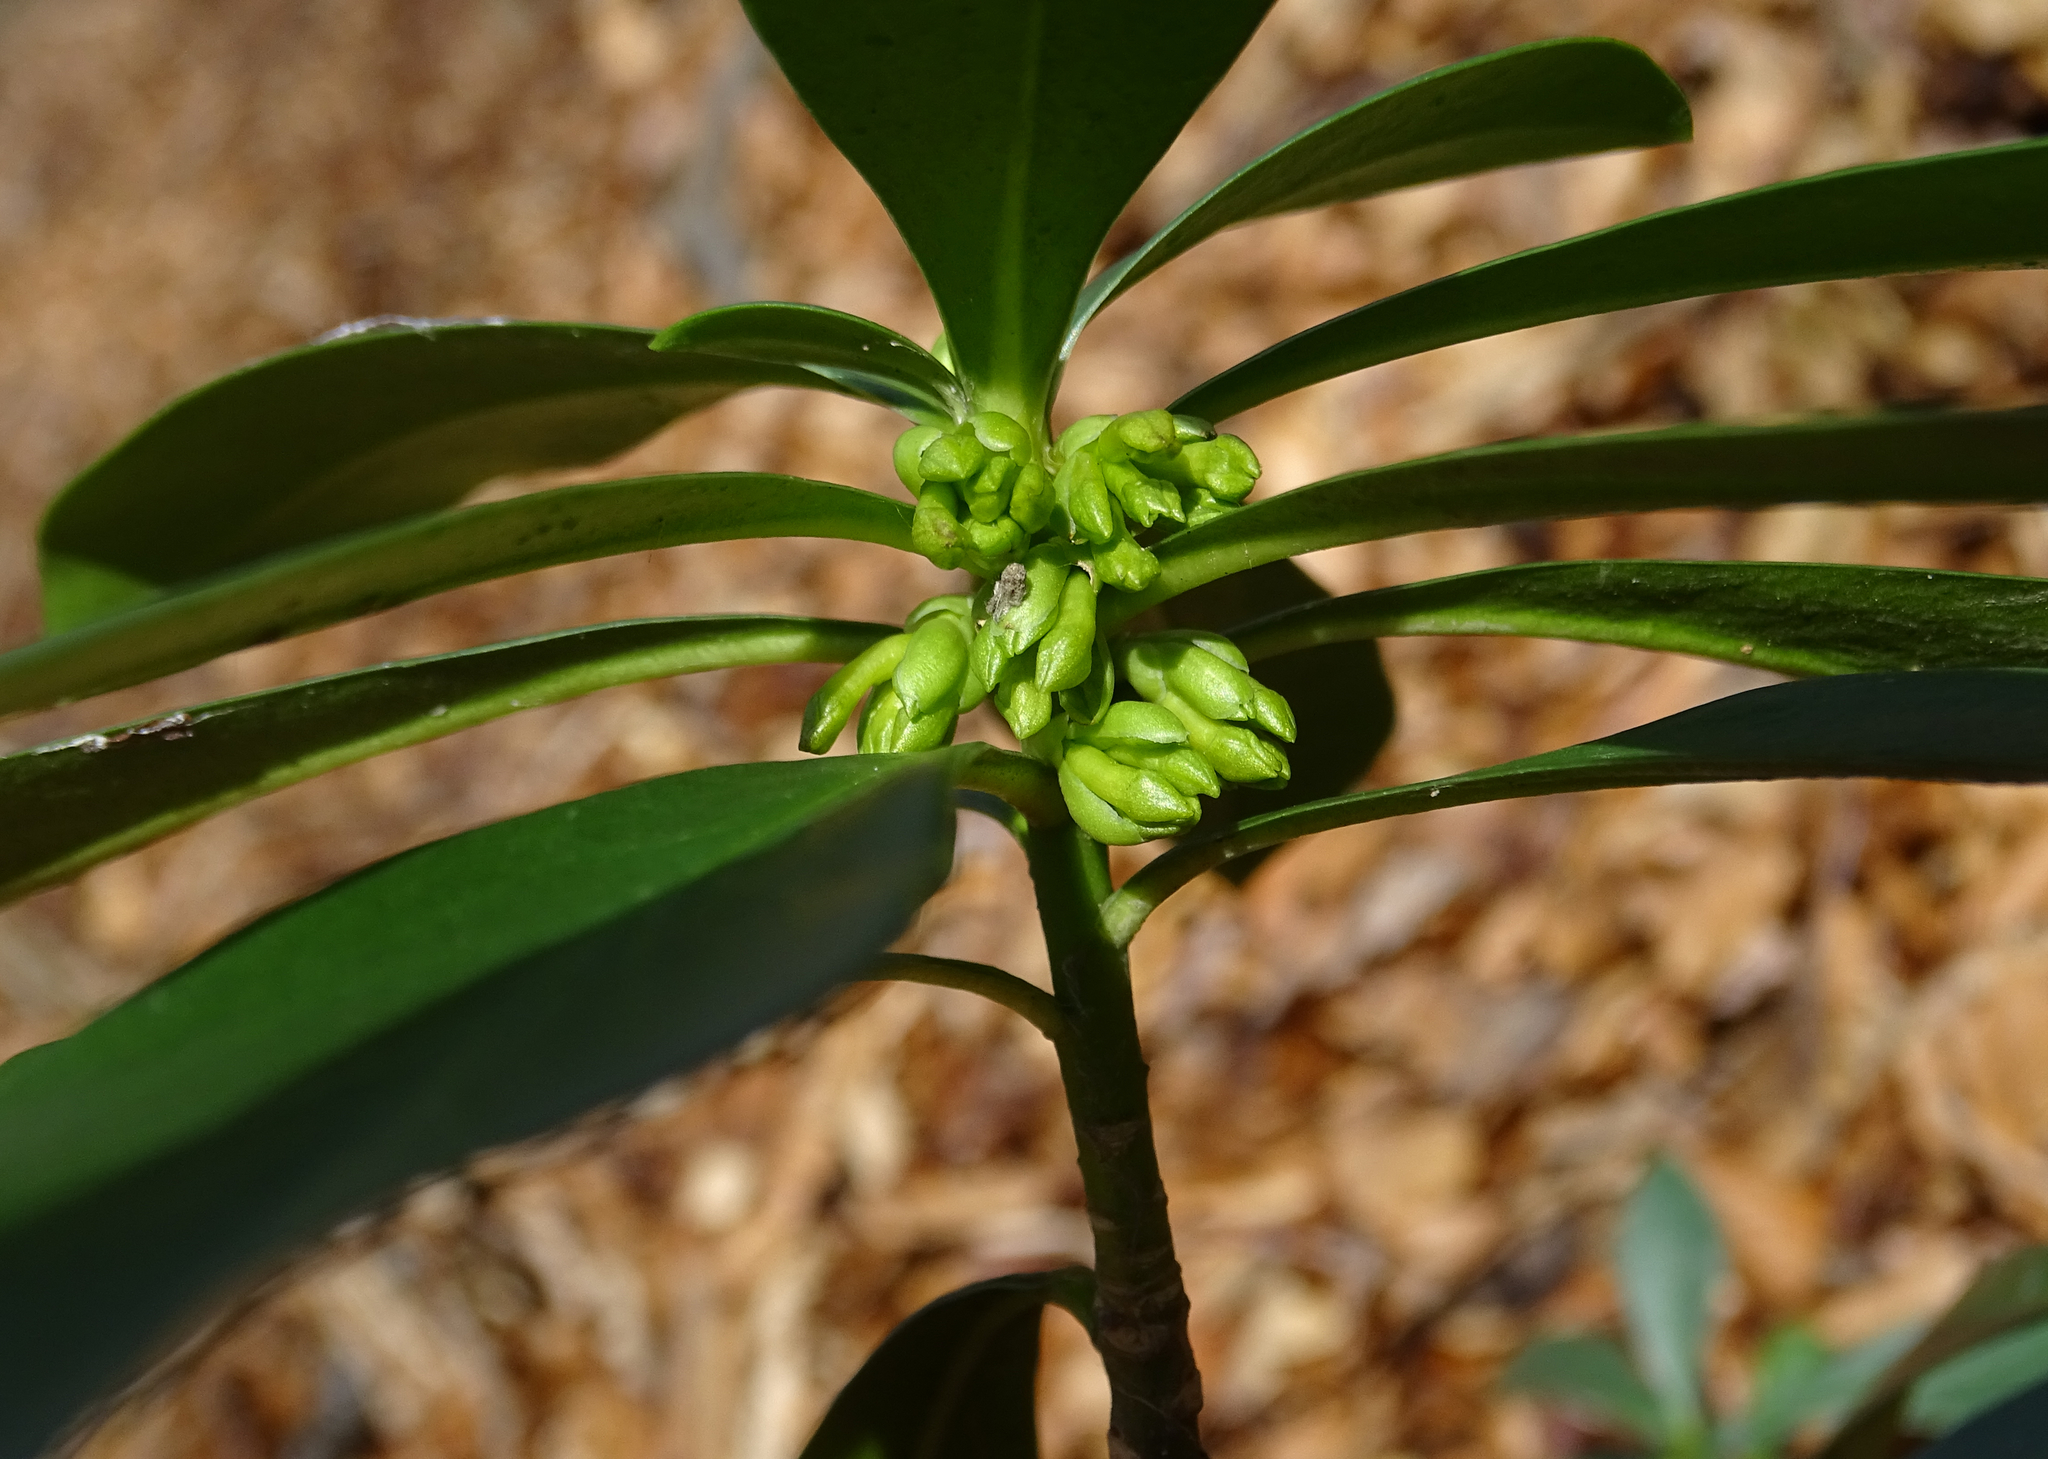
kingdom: Plantae
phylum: Tracheophyta
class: Magnoliopsida
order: Malvales
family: Thymelaeaceae
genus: Daphne
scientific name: Daphne laureola
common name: Spurge-laurel
